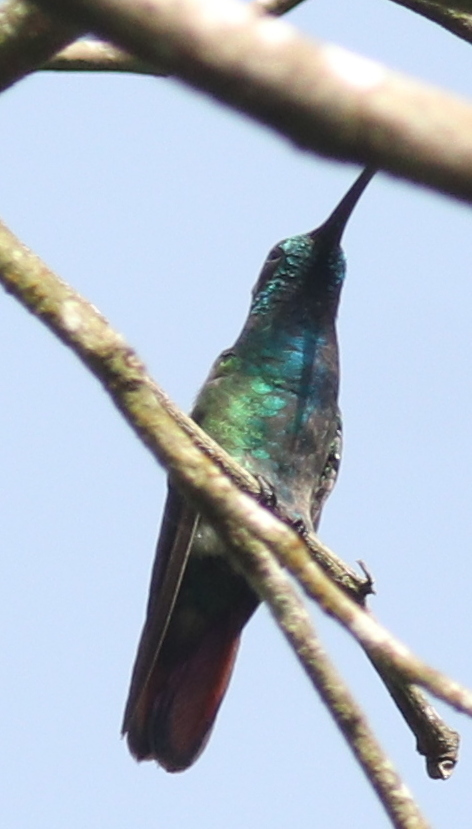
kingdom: Animalia
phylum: Chordata
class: Aves
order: Apodiformes
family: Trochilidae
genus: Anthracothorax
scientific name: Anthracothorax prevostii
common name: Green-breasted mango
